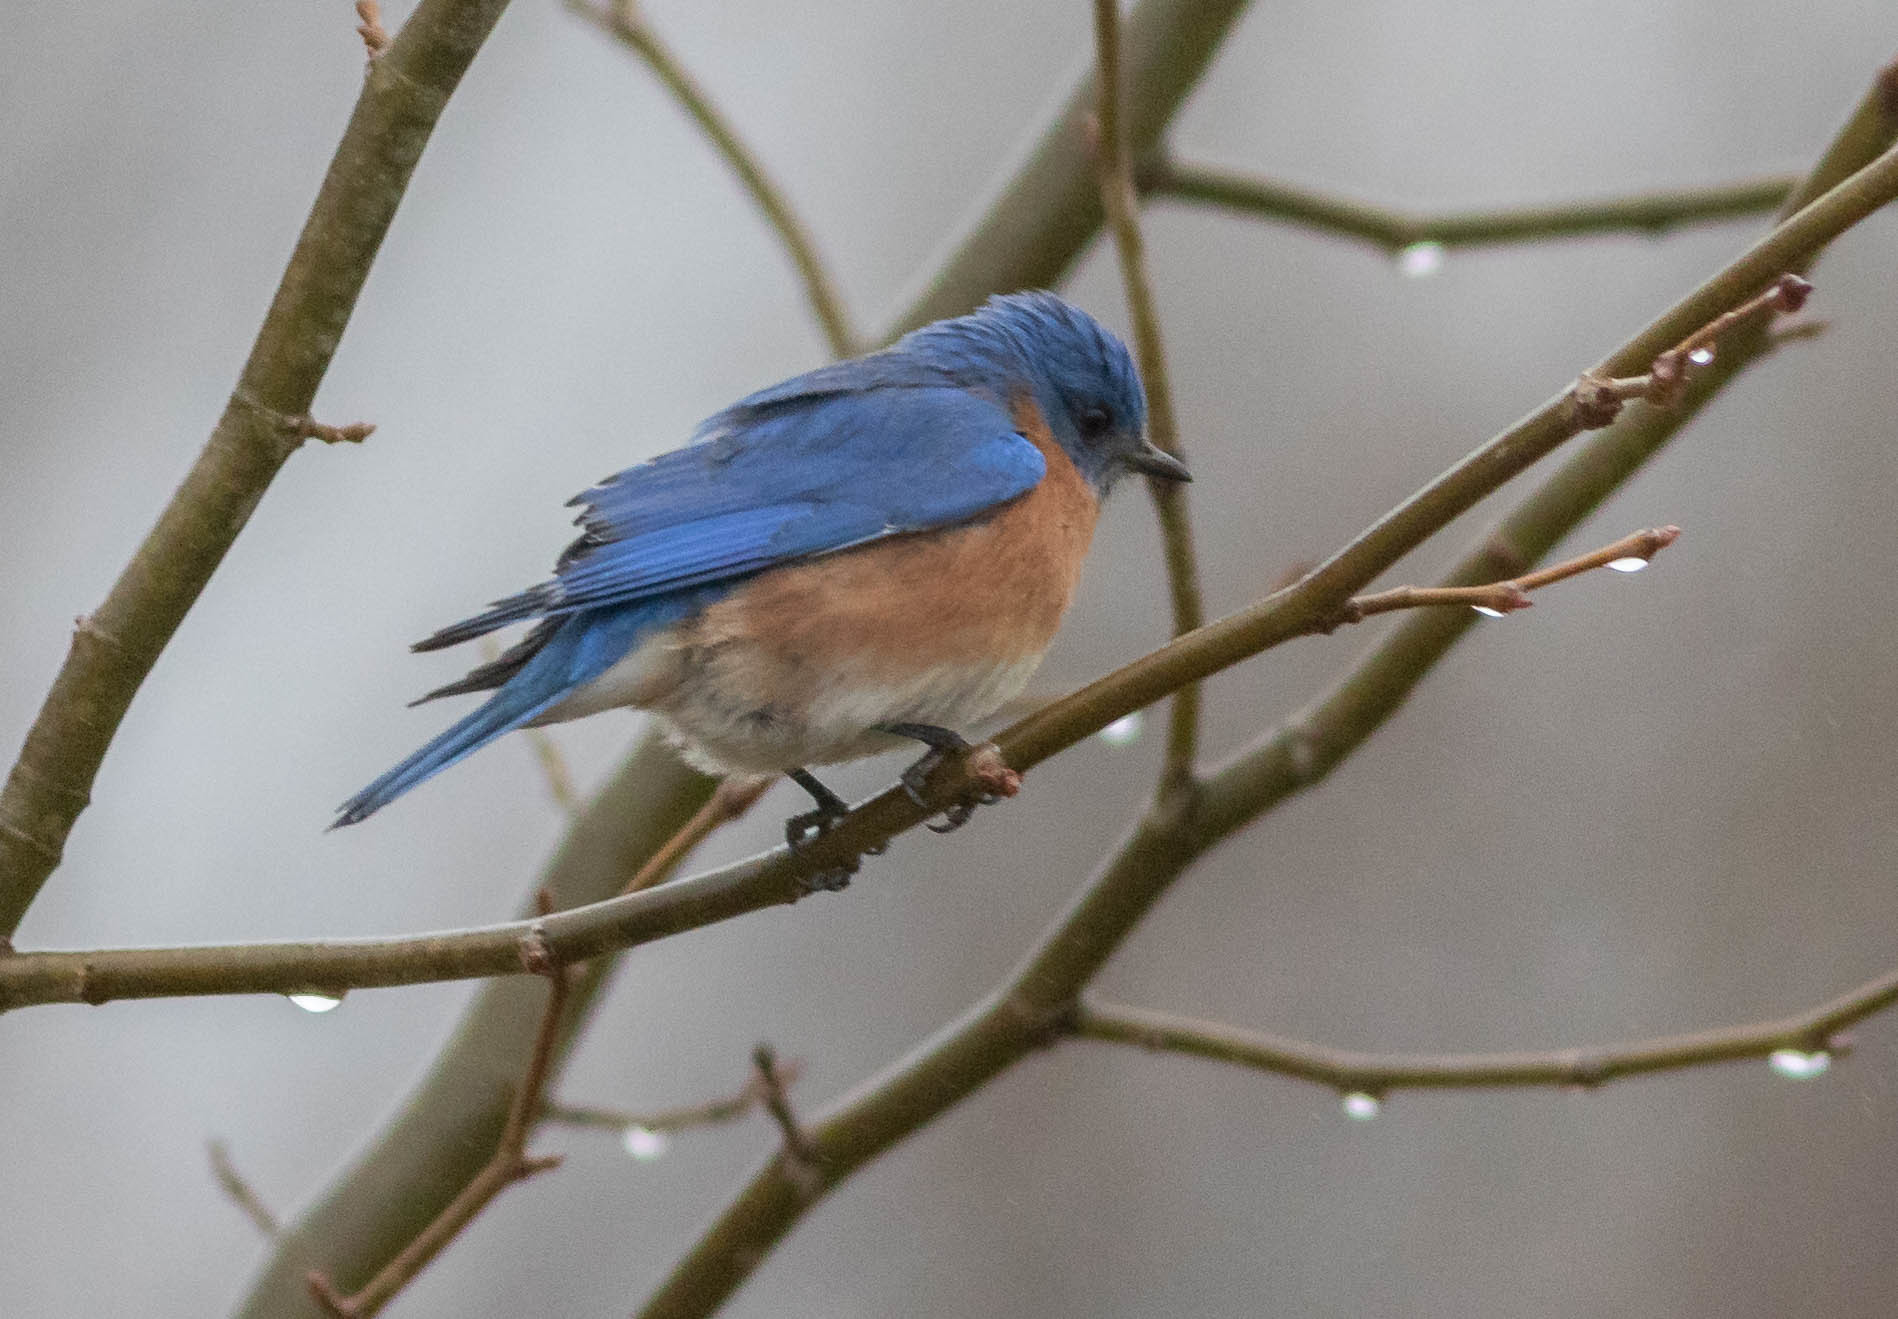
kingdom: Animalia
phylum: Chordata
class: Aves
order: Passeriformes
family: Turdidae
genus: Sialia
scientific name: Sialia sialis
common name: Eastern bluebird
